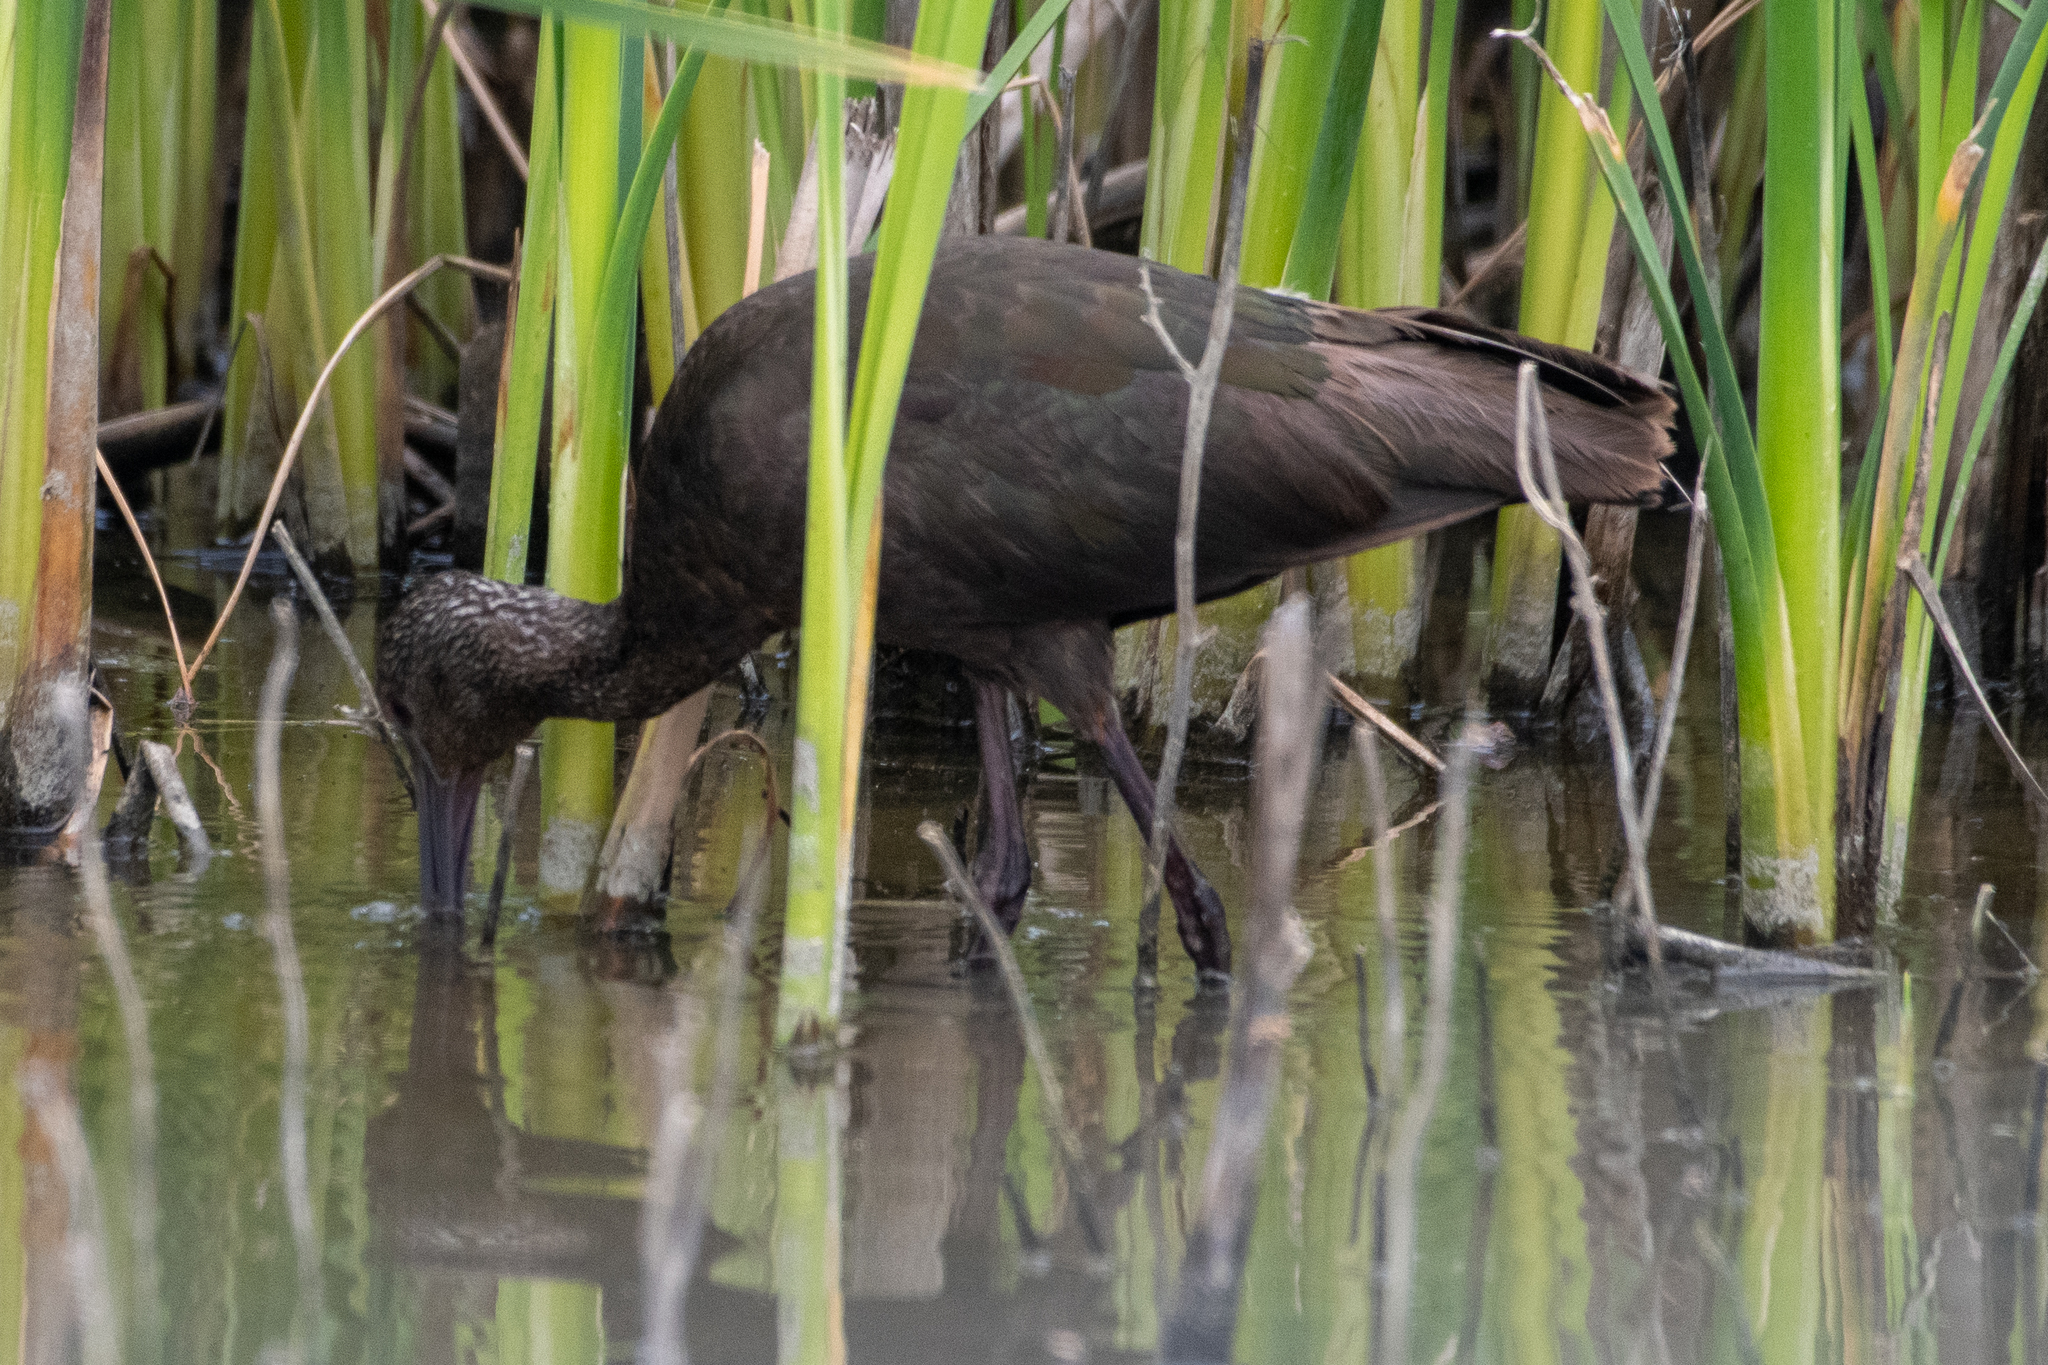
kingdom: Animalia
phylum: Chordata
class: Aves
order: Pelecaniformes
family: Threskiornithidae
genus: Plegadis
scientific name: Plegadis chihi
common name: White-faced ibis
